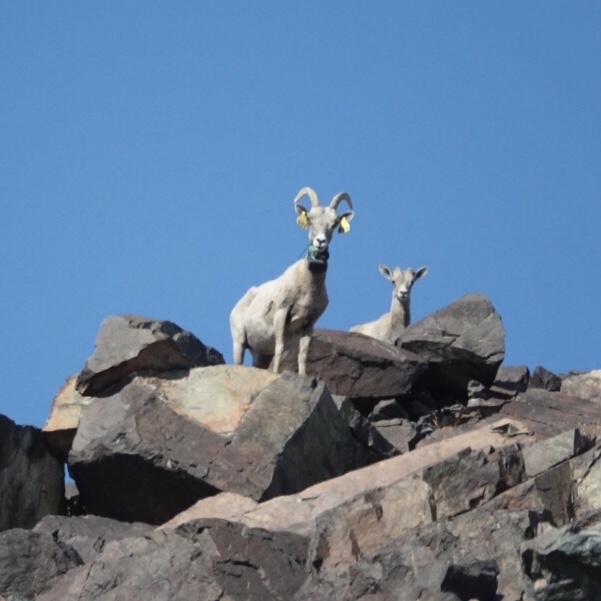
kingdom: Animalia
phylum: Chordata
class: Mammalia
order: Artiodactyla
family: Bovidae
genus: Ovis
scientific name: Ovis canadensis
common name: Bighorn sheep
